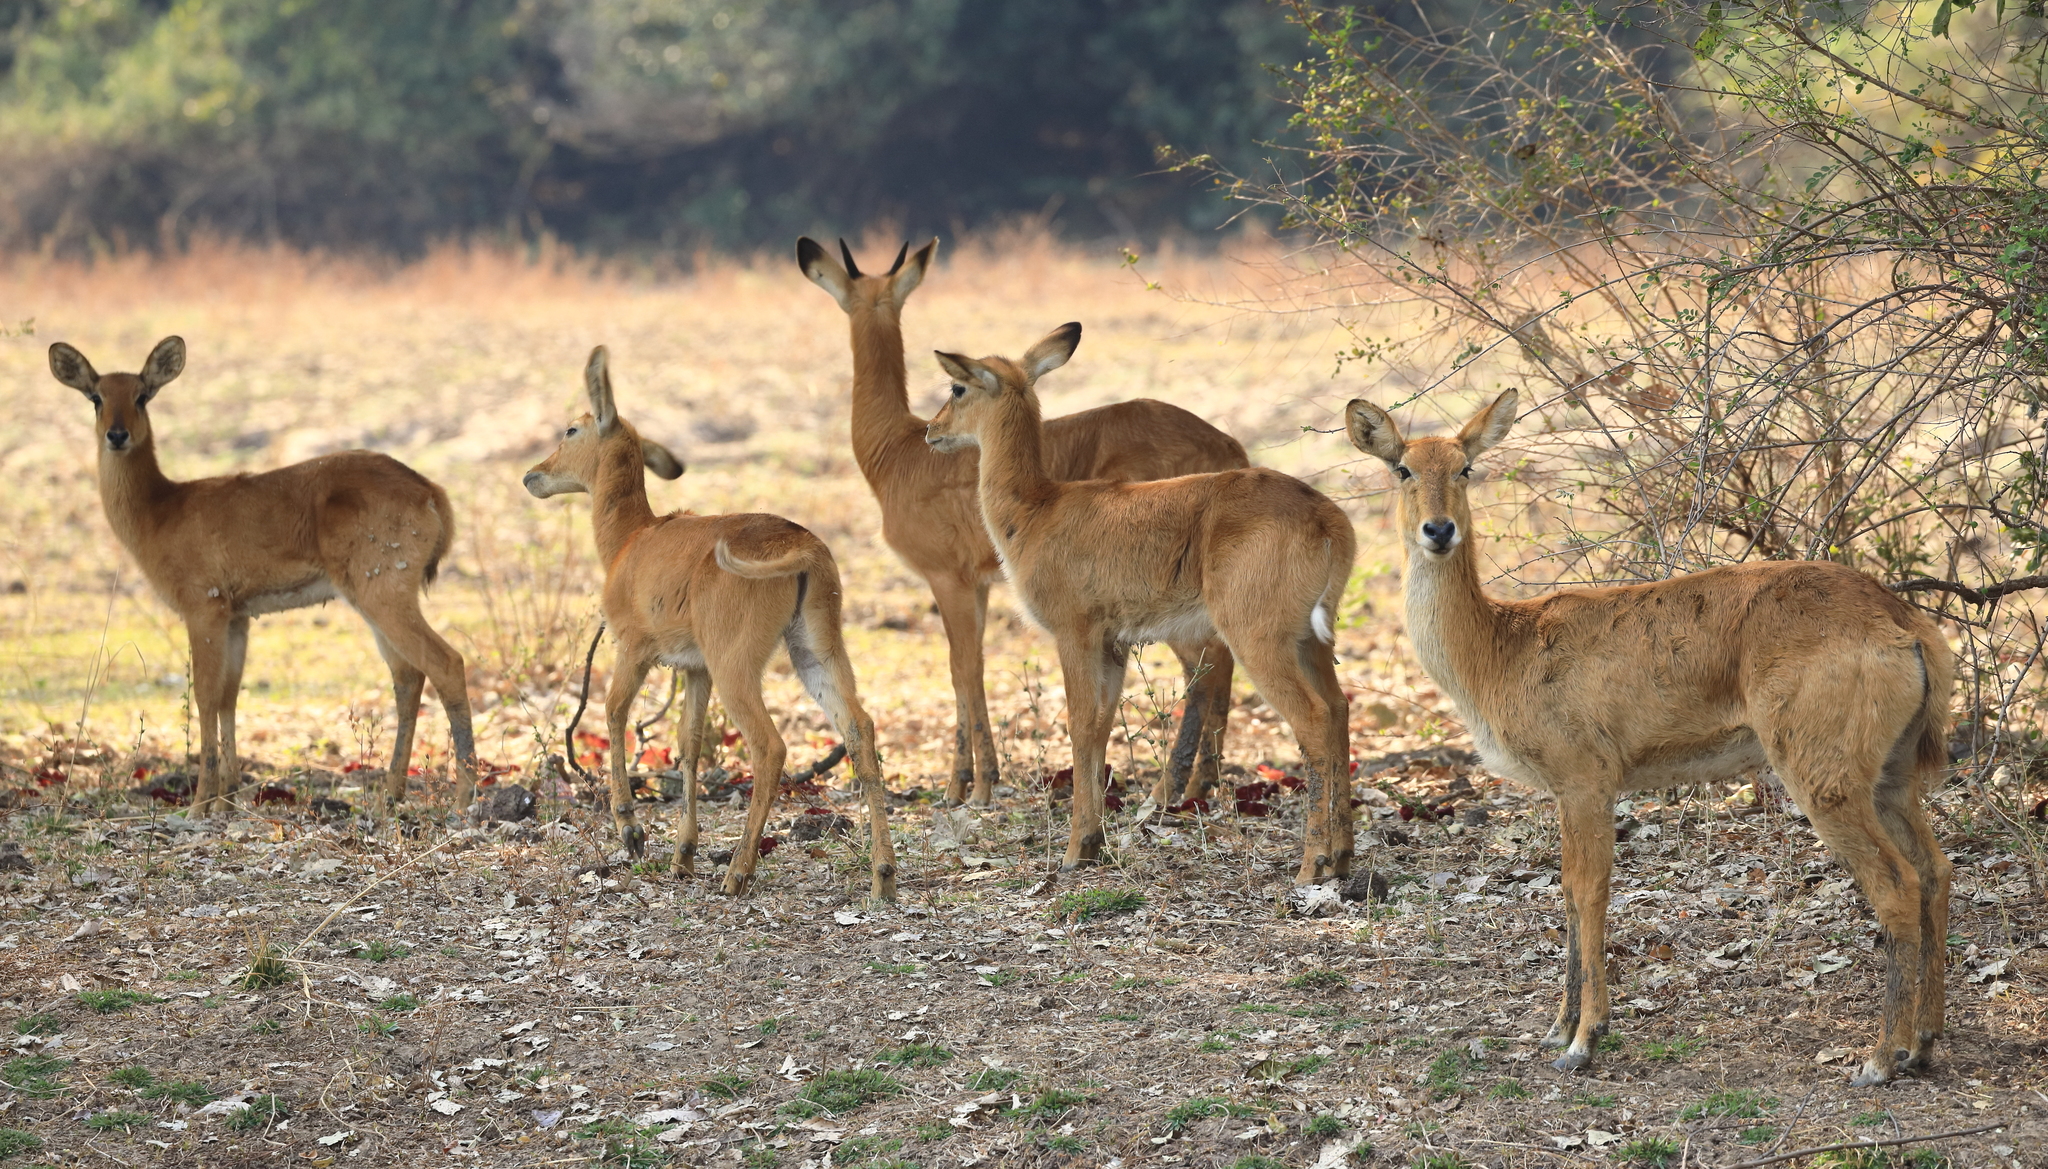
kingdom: Animalia
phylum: Chordata
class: Mammalia
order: Artiodactyla
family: Bovidae
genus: Kobus
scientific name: Kobus vardonii
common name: Puku
